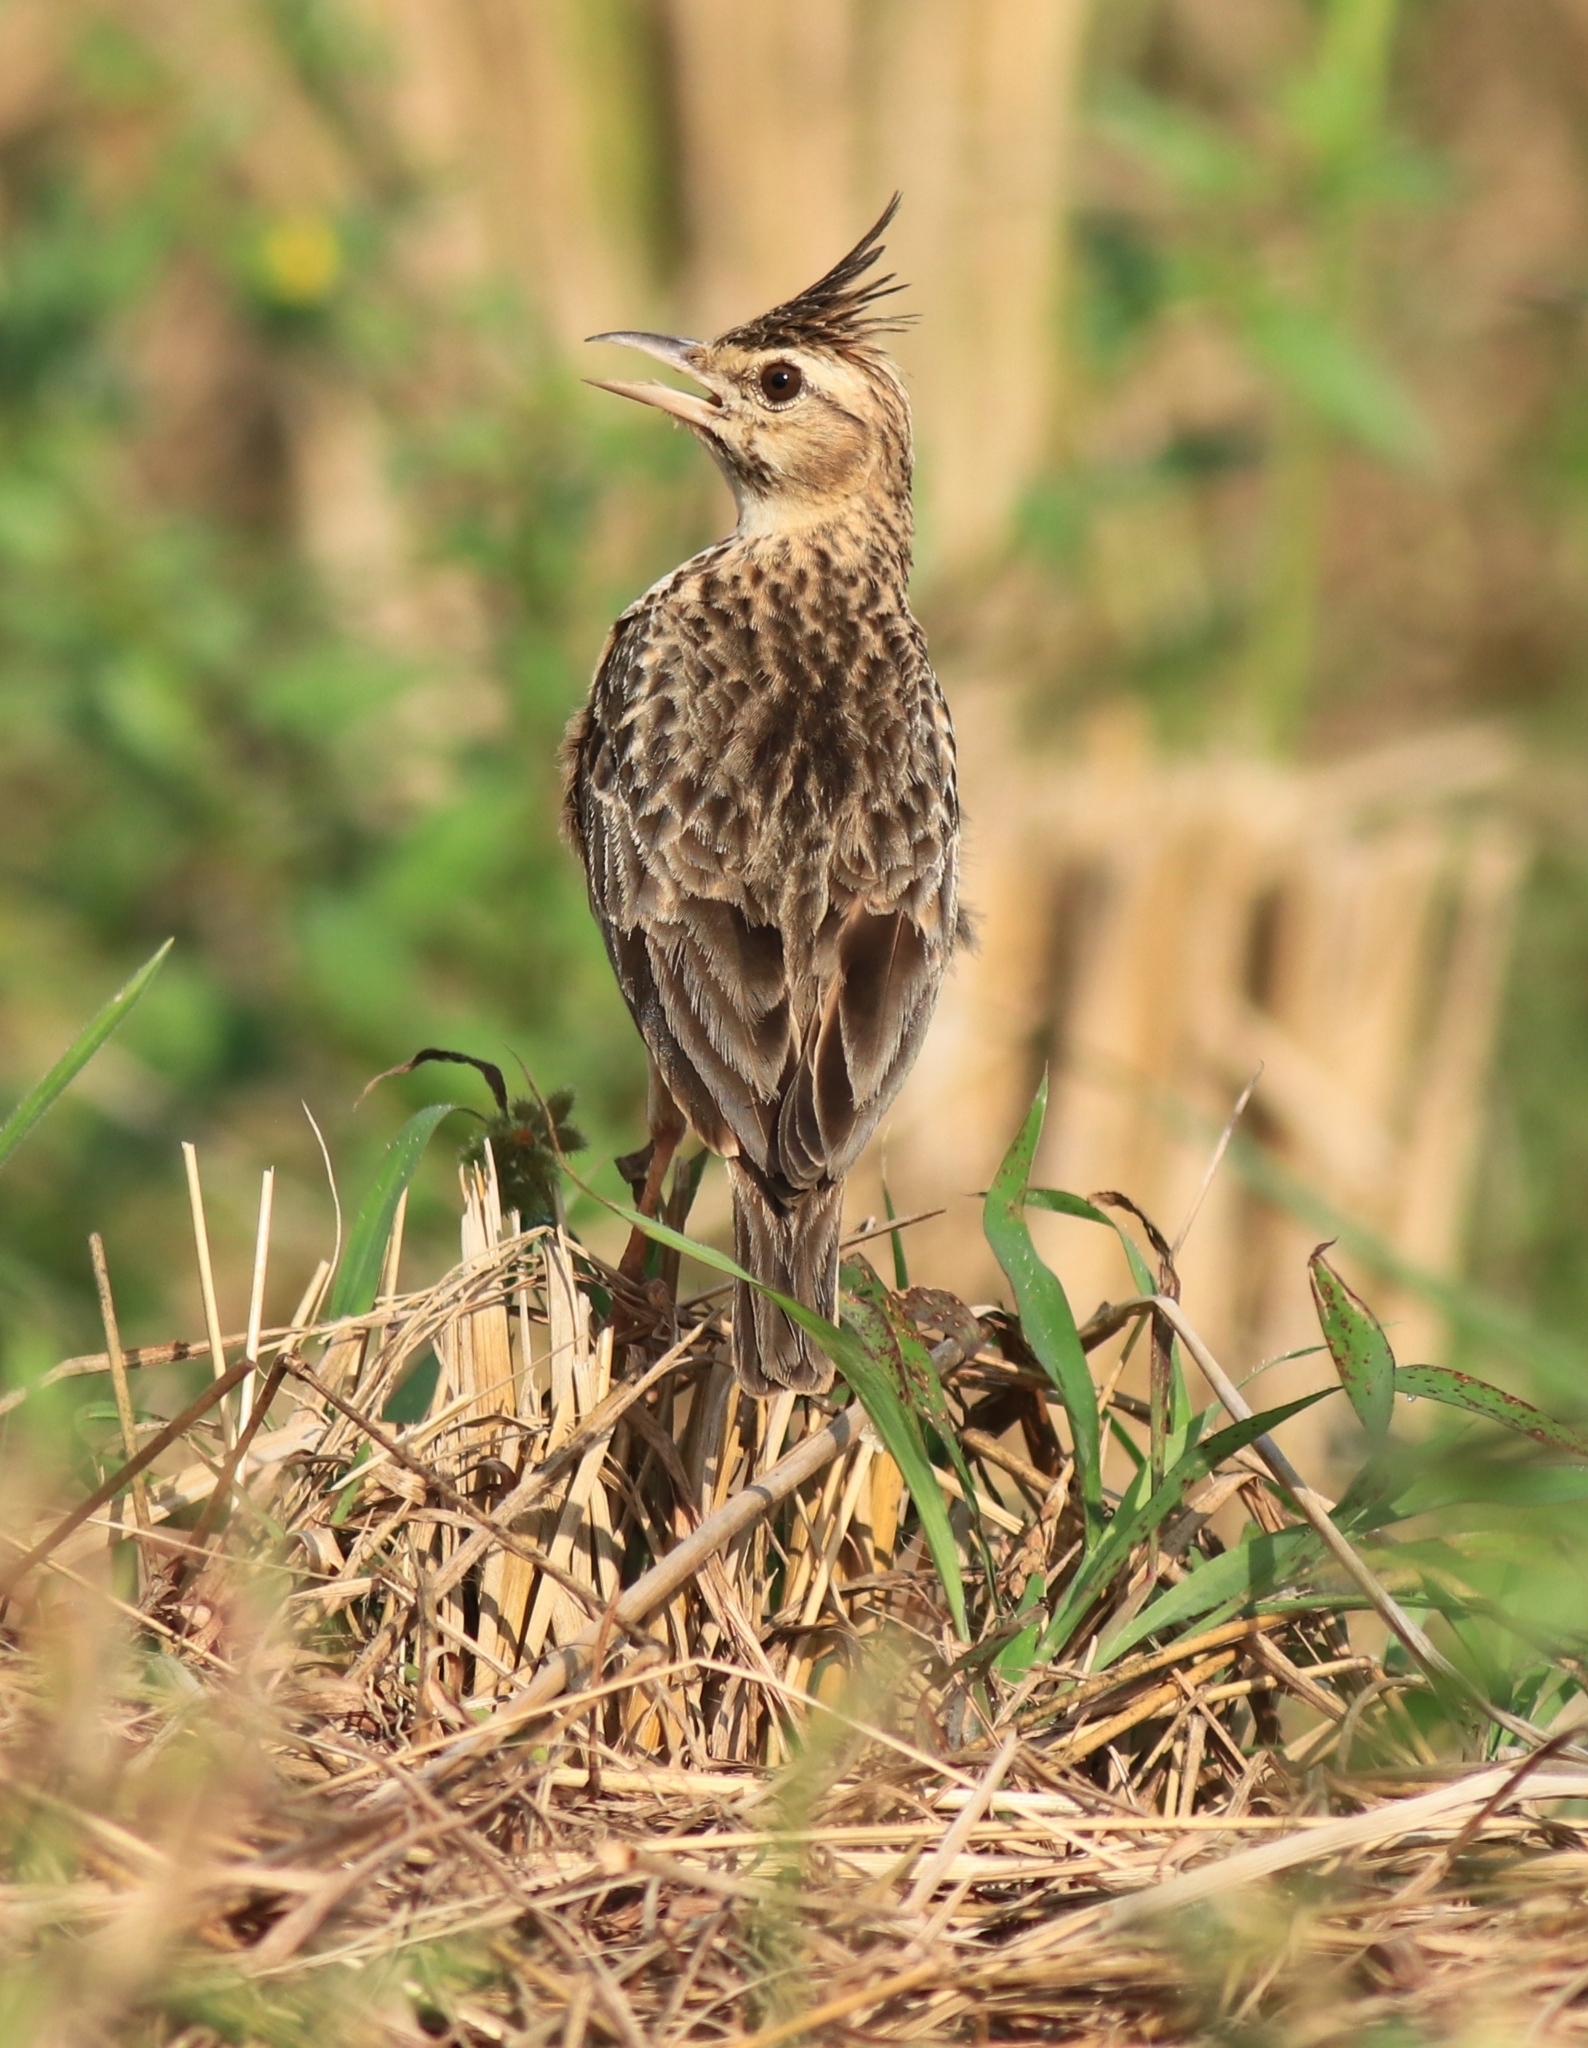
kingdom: Animalia
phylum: Chordata
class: Aves
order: Passeriformes
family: Alaudidae
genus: Galerida
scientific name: Galerida malabarica
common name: Malabar lark
